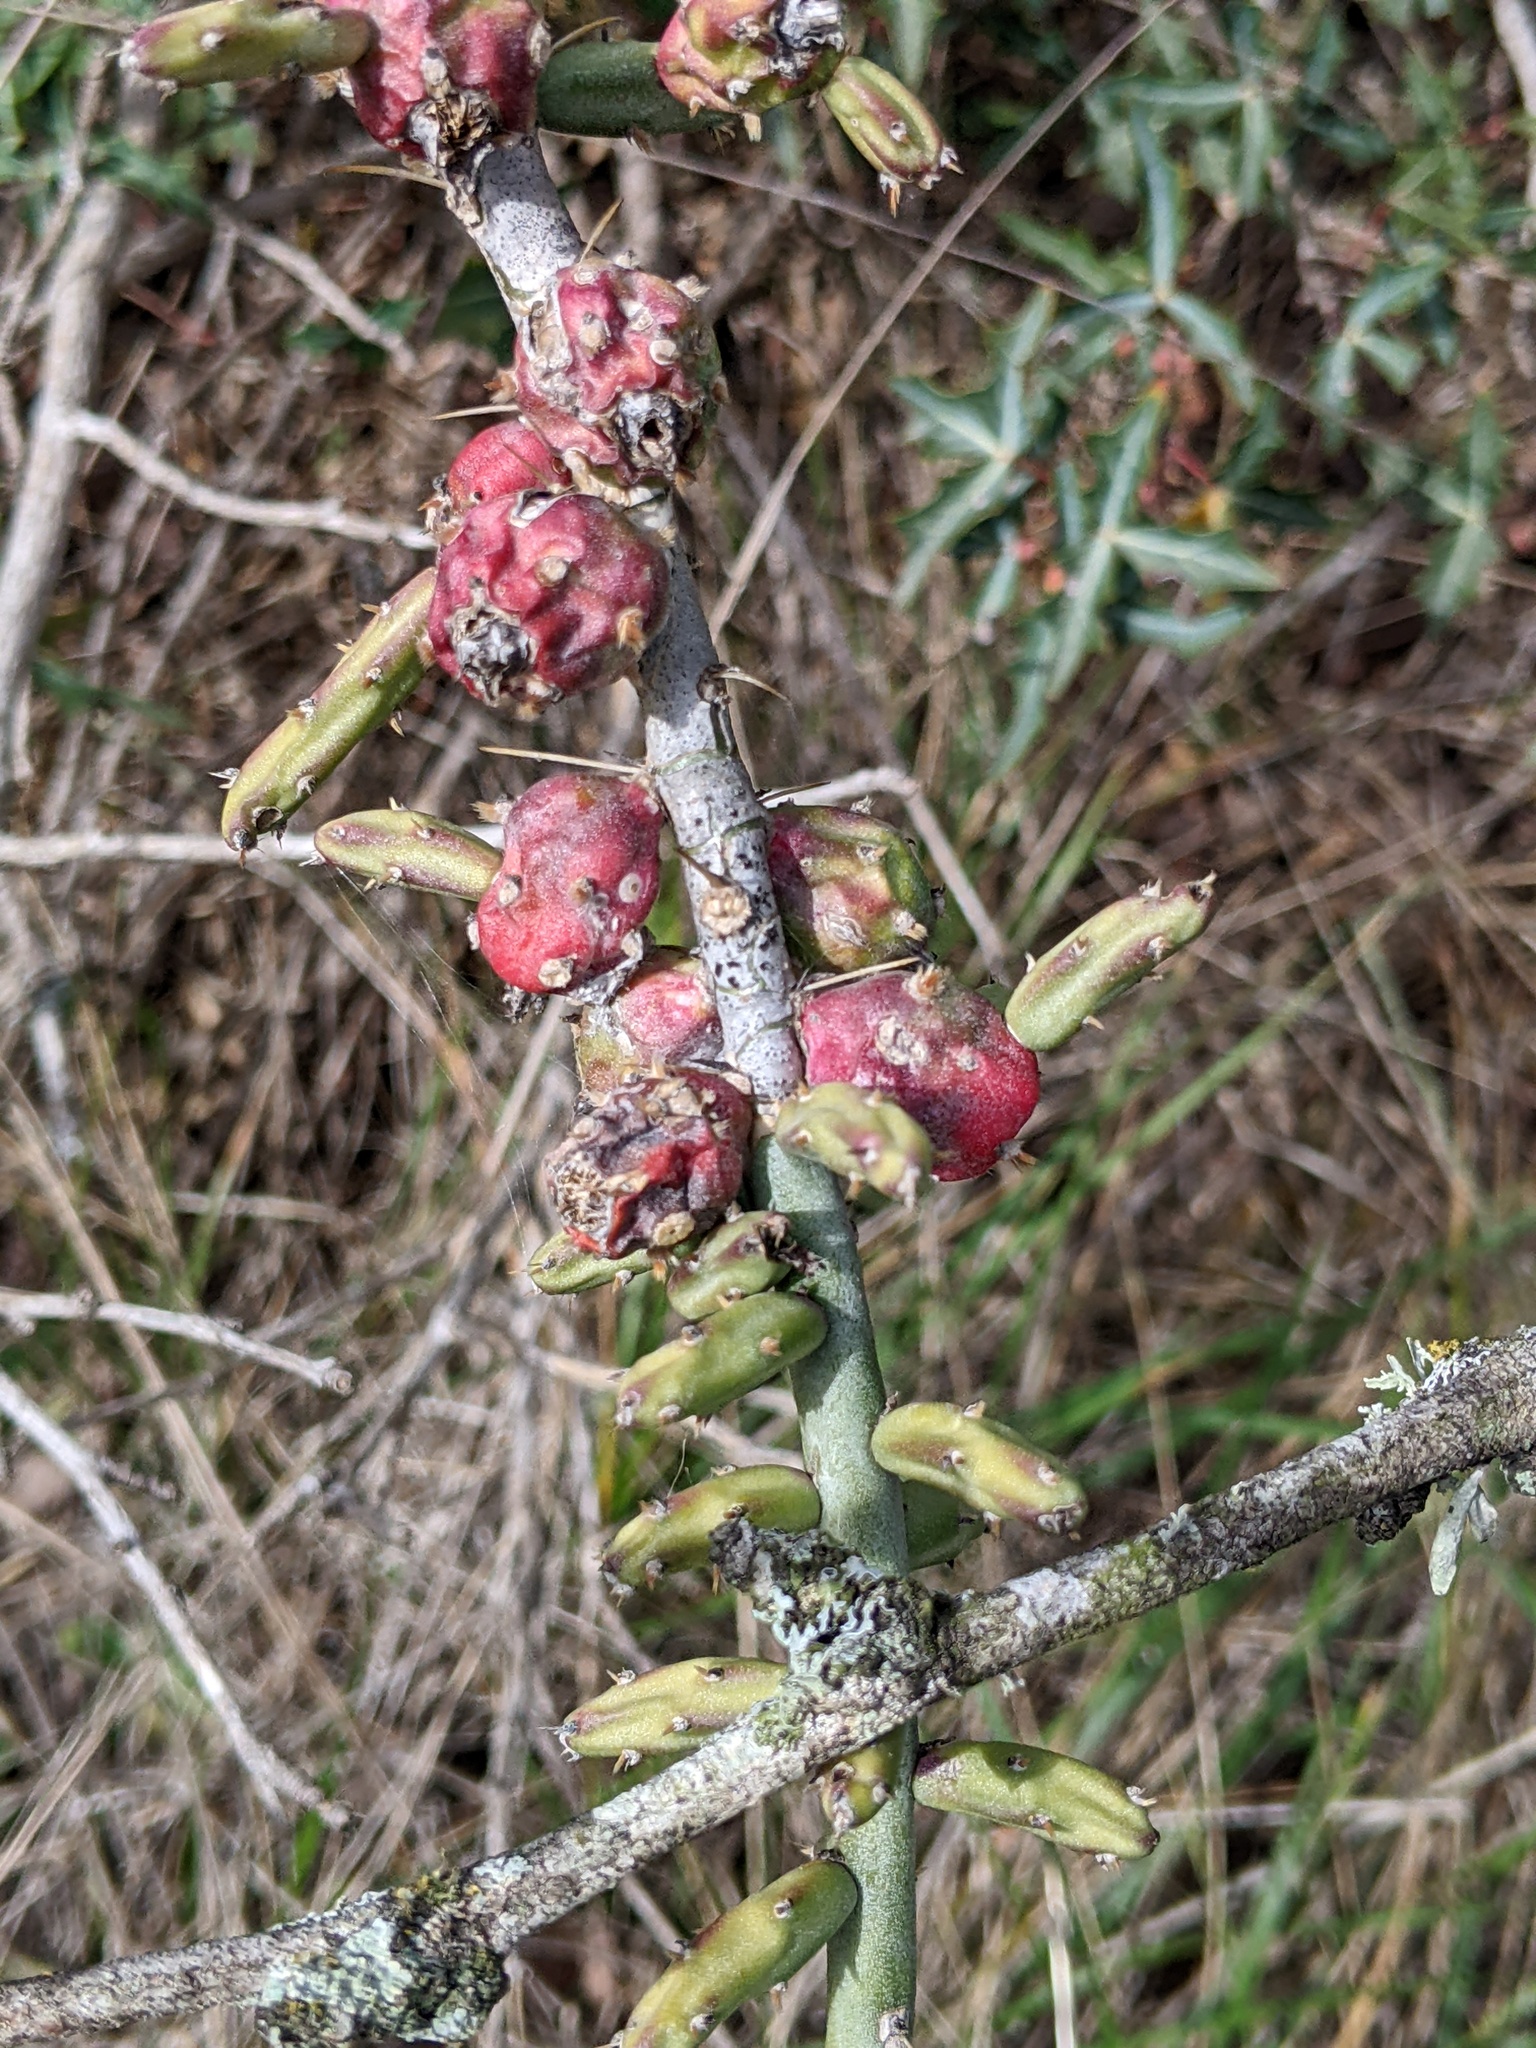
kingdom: Plantae
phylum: Tracheophyta
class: Magnoliopsida
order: Caryophyllales
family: Cactaceae
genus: Cylindropuntia
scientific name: Cylindropuntia leptocaulis
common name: Christmas cactus
